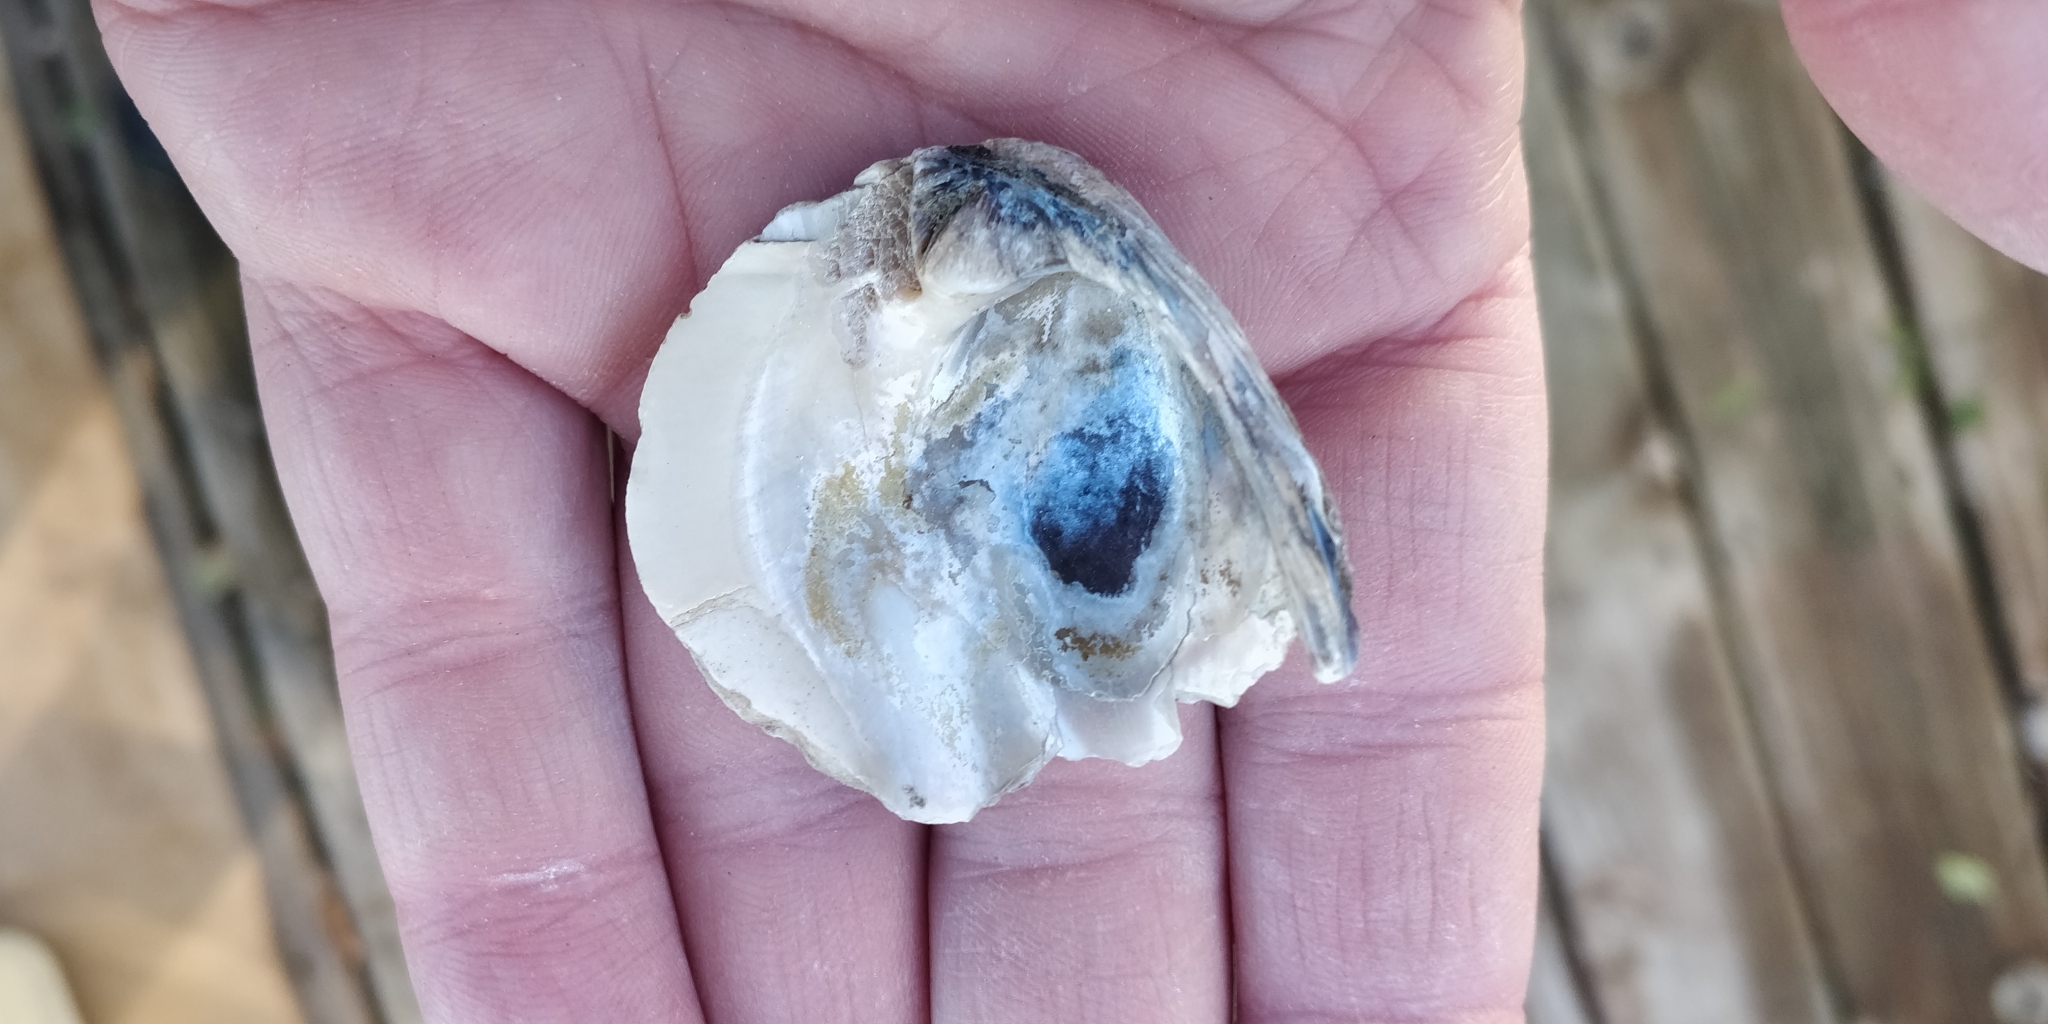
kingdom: Animalia
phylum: Mollusca
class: Bivalvia
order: Unionida
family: Unionidae
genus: Amblema
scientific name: Amblema plicata
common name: Threeridge
